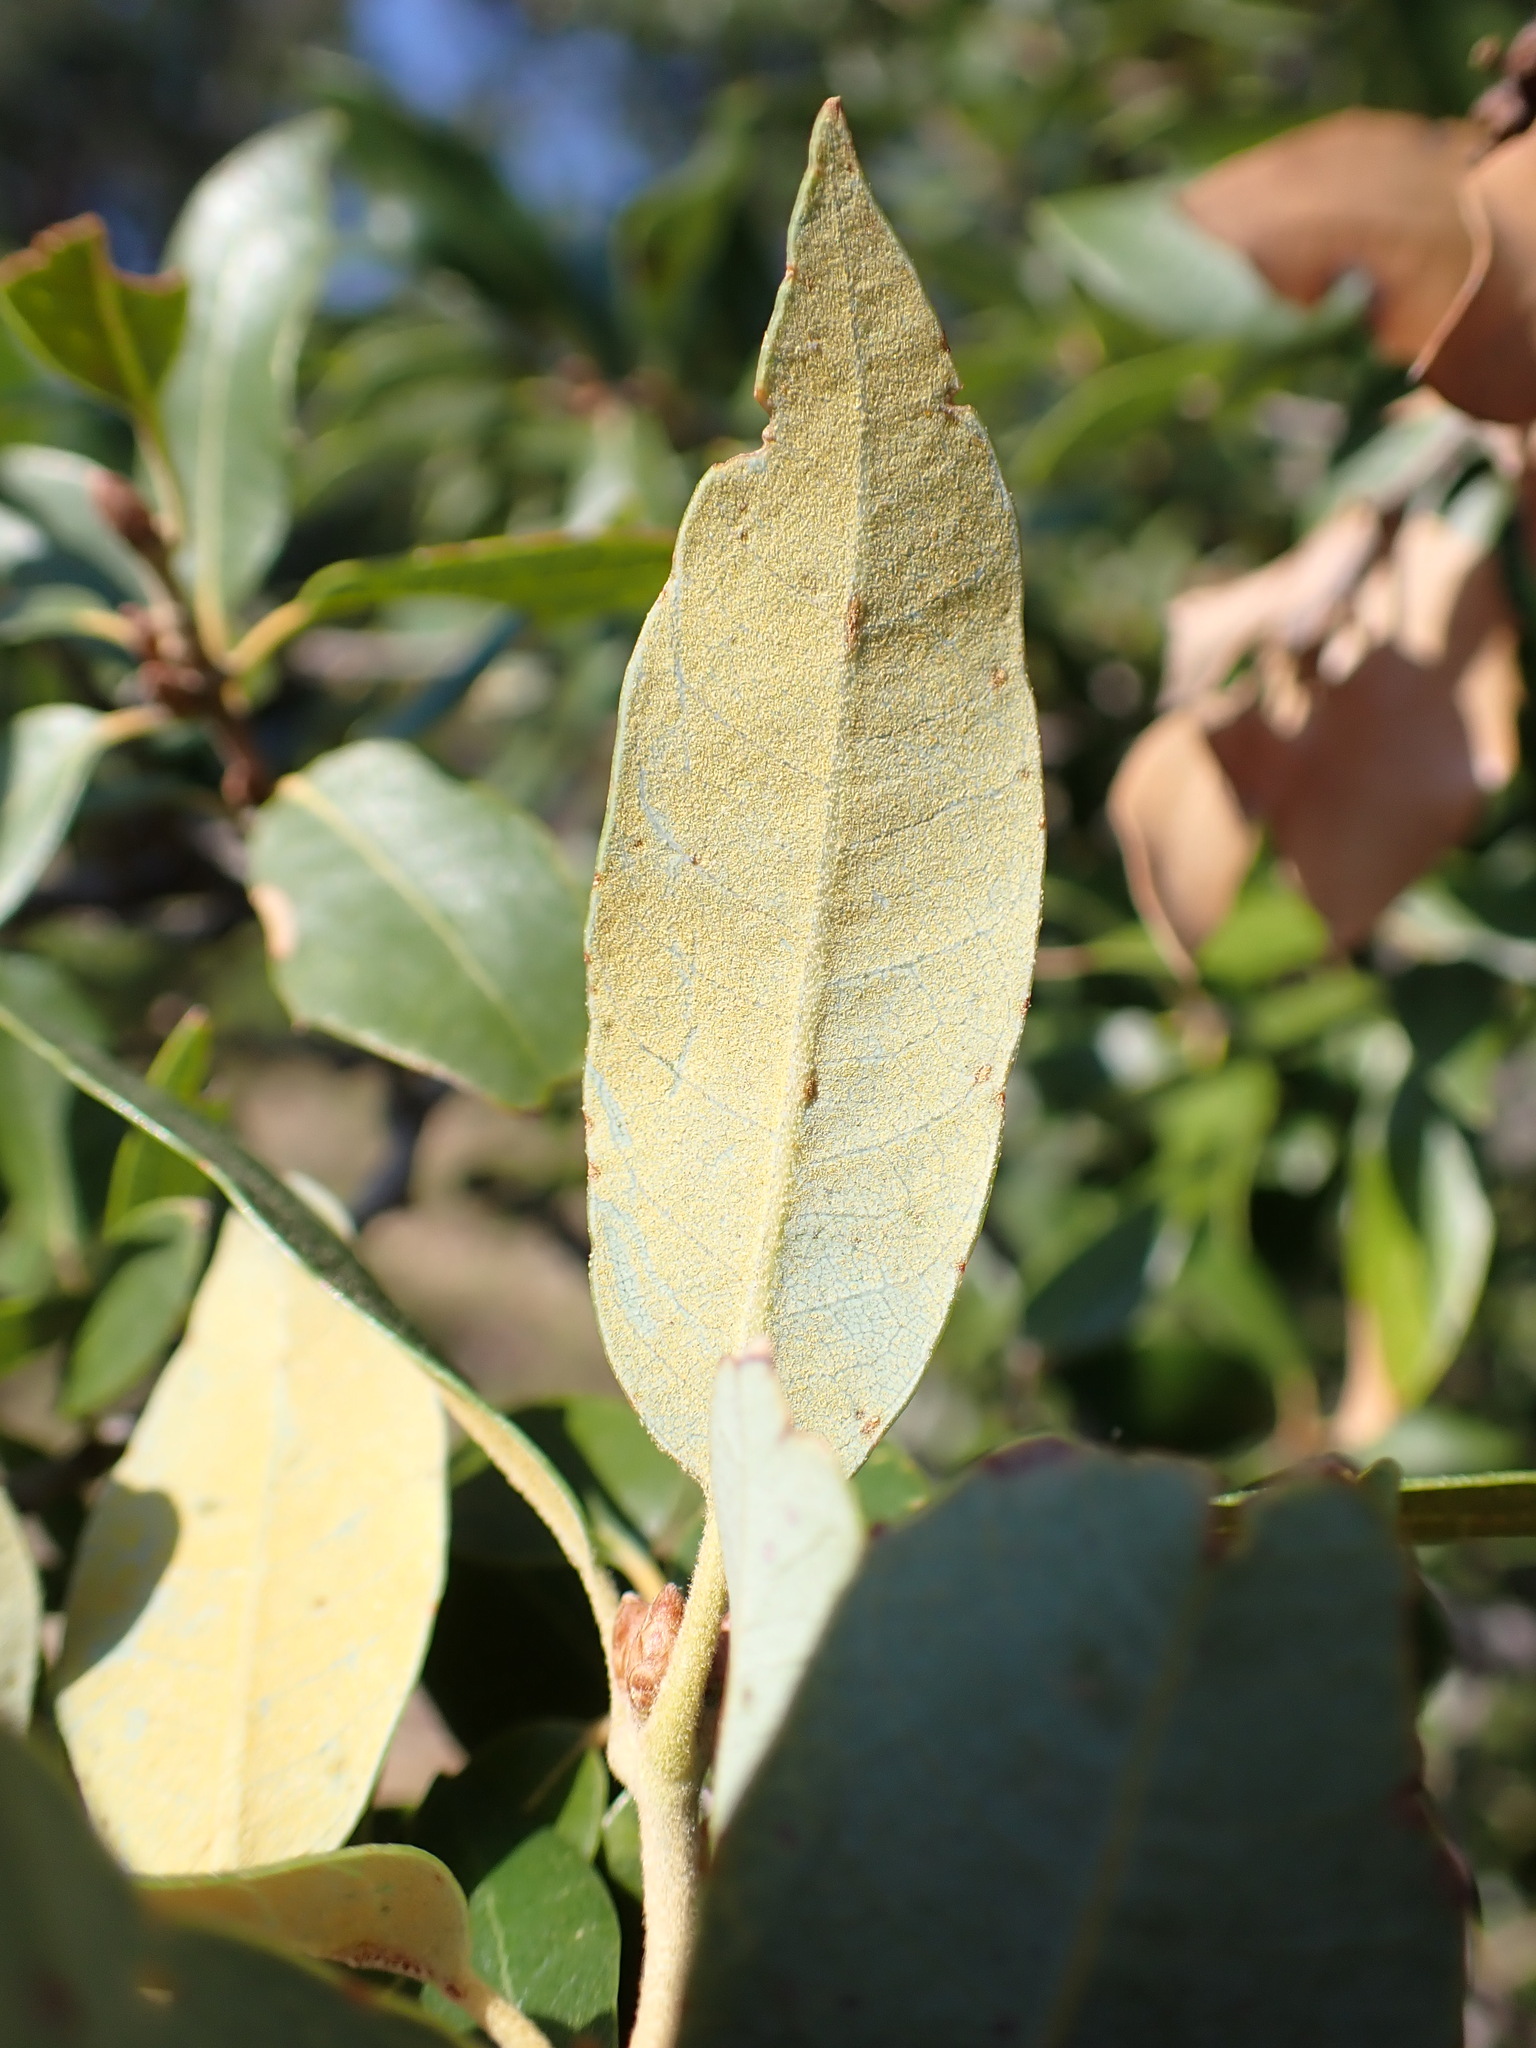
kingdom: Plantae
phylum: Tracheophyta
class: Magnoliopsida
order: Fagales
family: Fagaceae
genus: Quercus
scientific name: Quercus chrysolepis
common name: Canyon live oak
